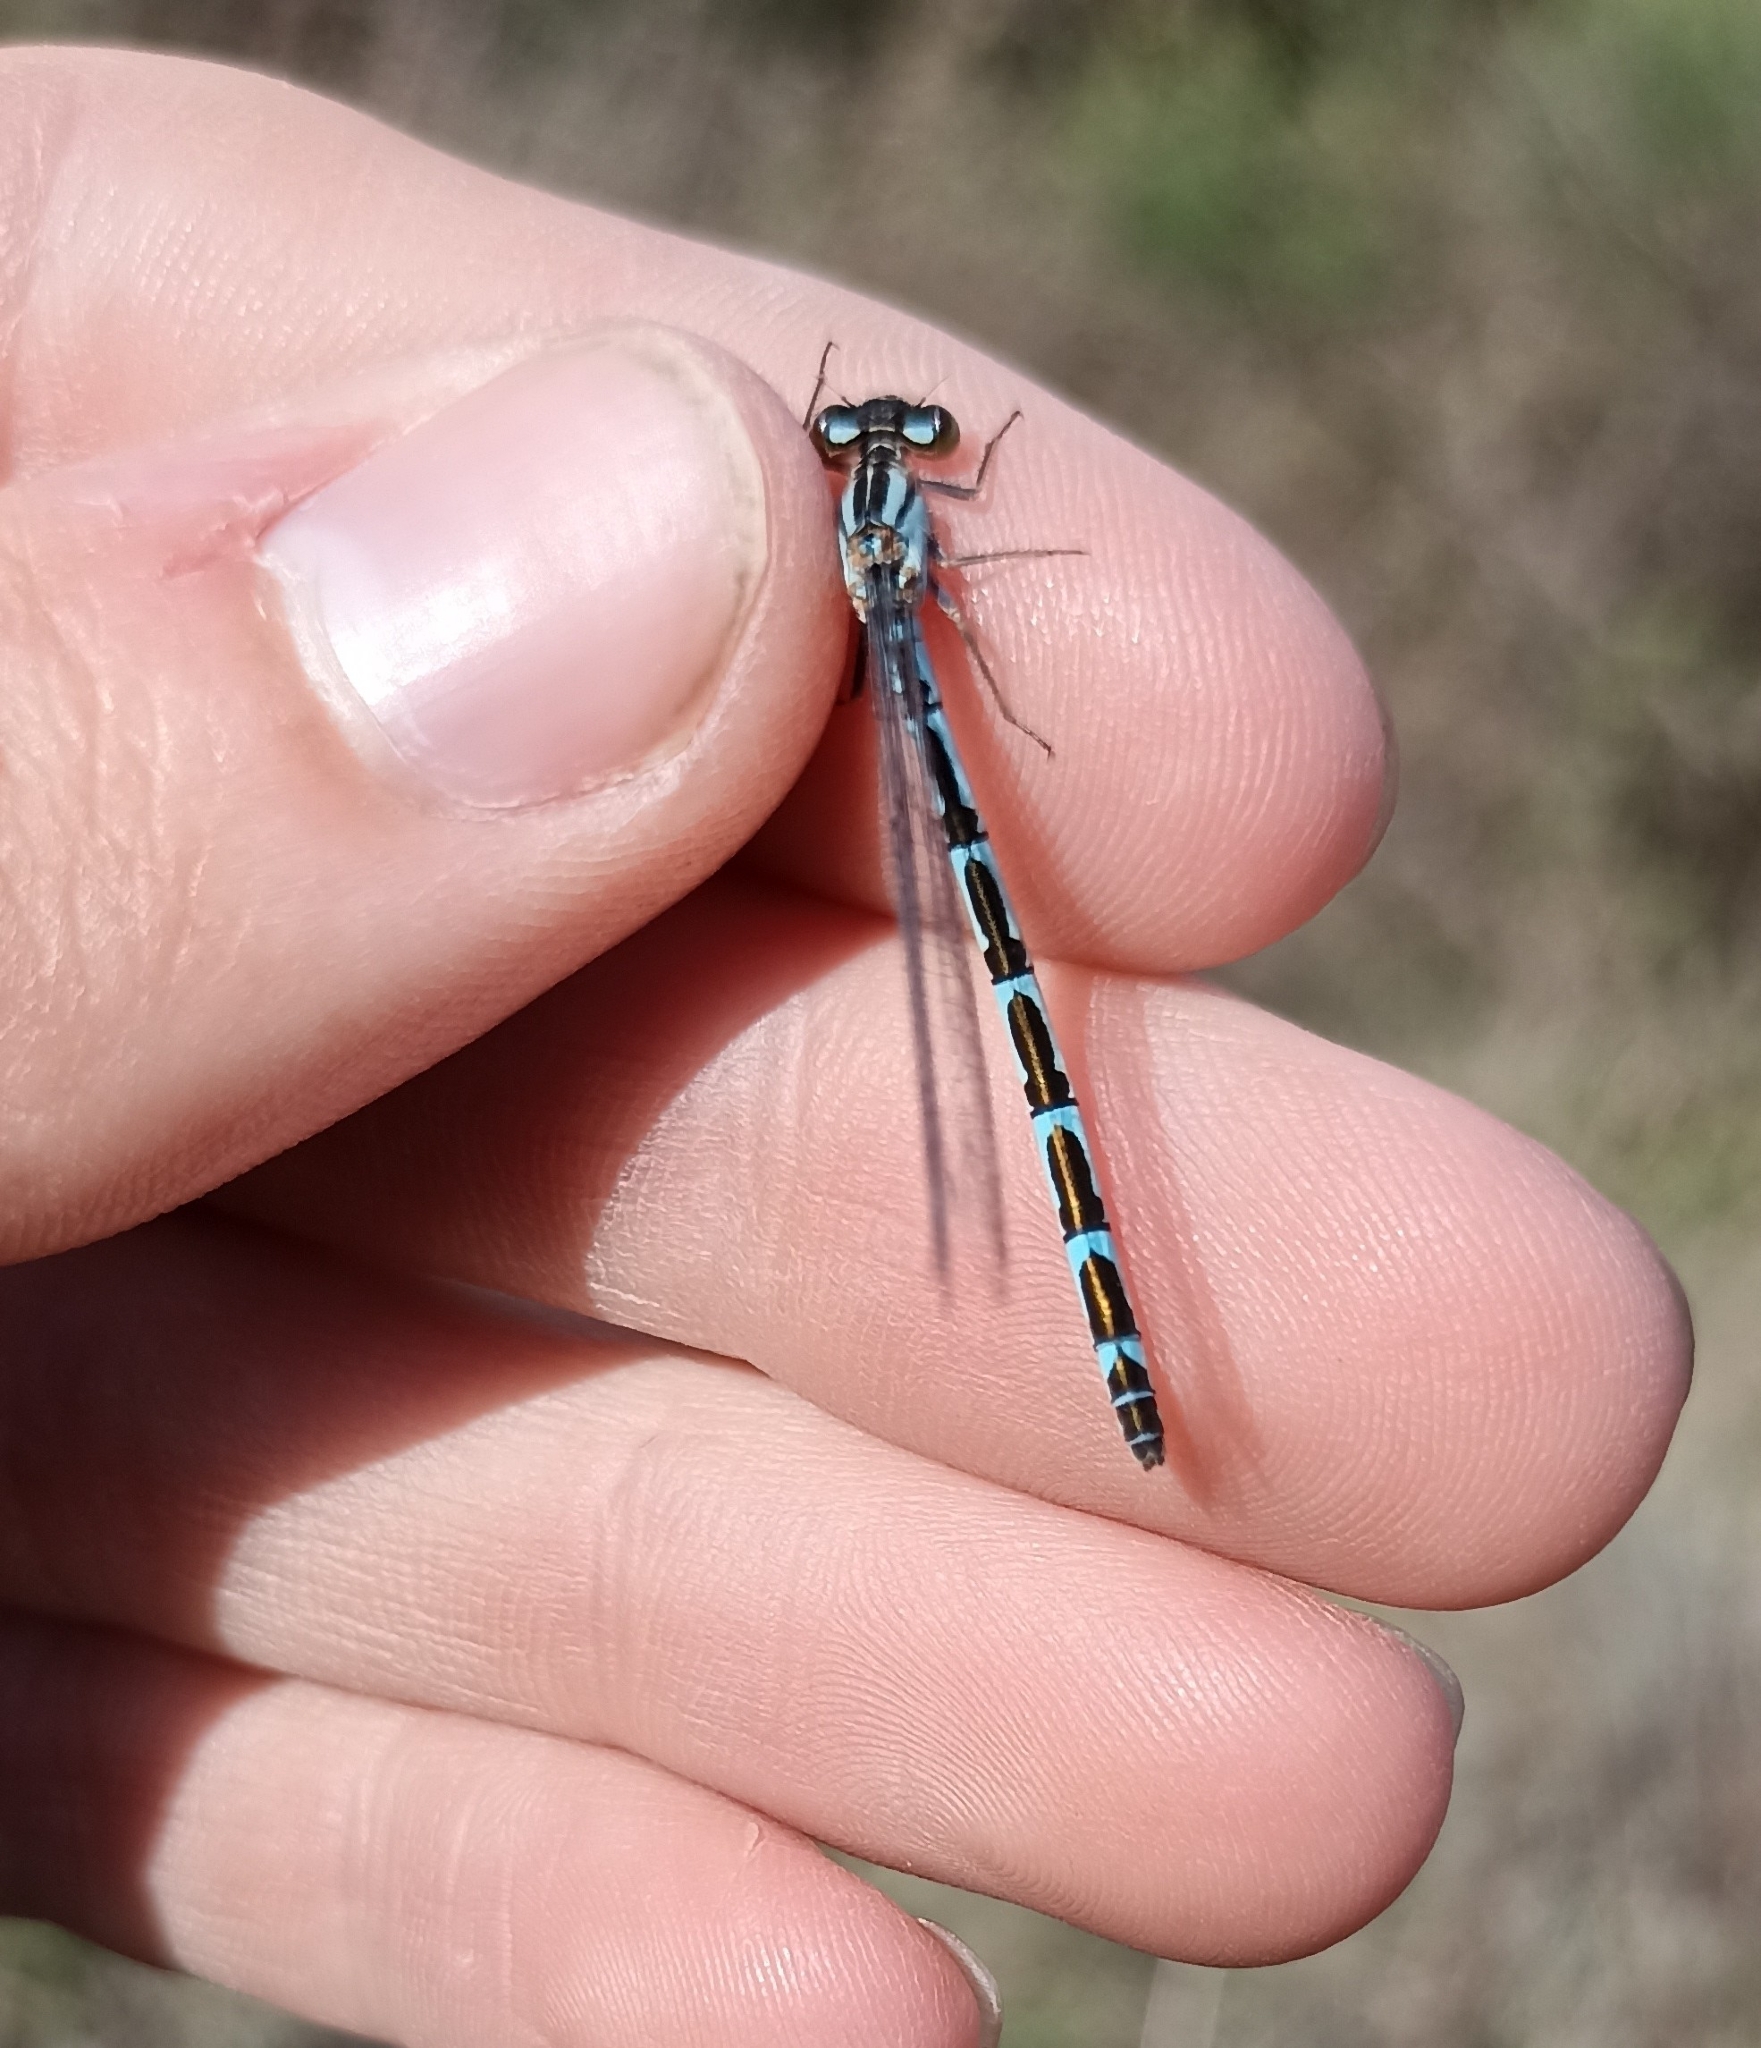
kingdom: Animalia
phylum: Arthropoda
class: Insecta
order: Odonata
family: Coenagrionidae
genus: Enallagma
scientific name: Enallagma cyathigerum
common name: Common blue damselfly
